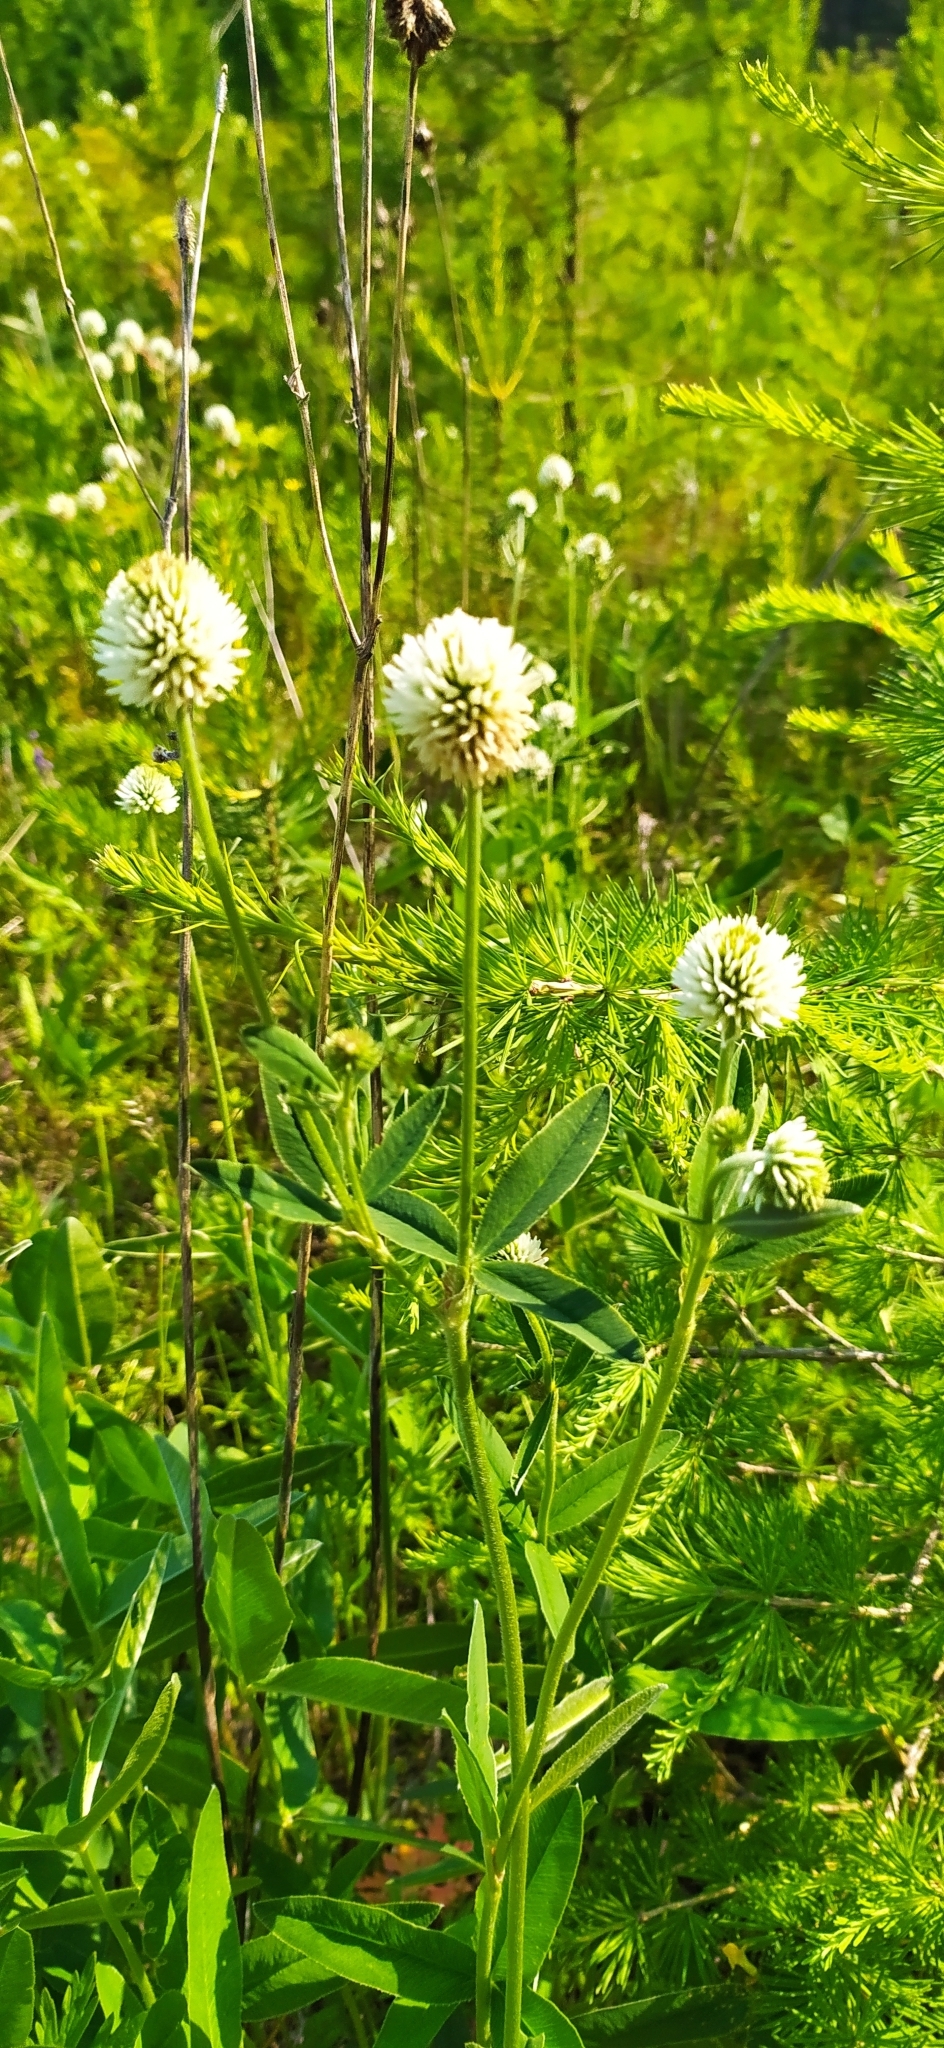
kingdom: Plantae
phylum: Tracheophyta
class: Magnoliopsida
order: Fabales
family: Fabaceae
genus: Trifolium
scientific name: Trifolium montanum
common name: Mountain clover
